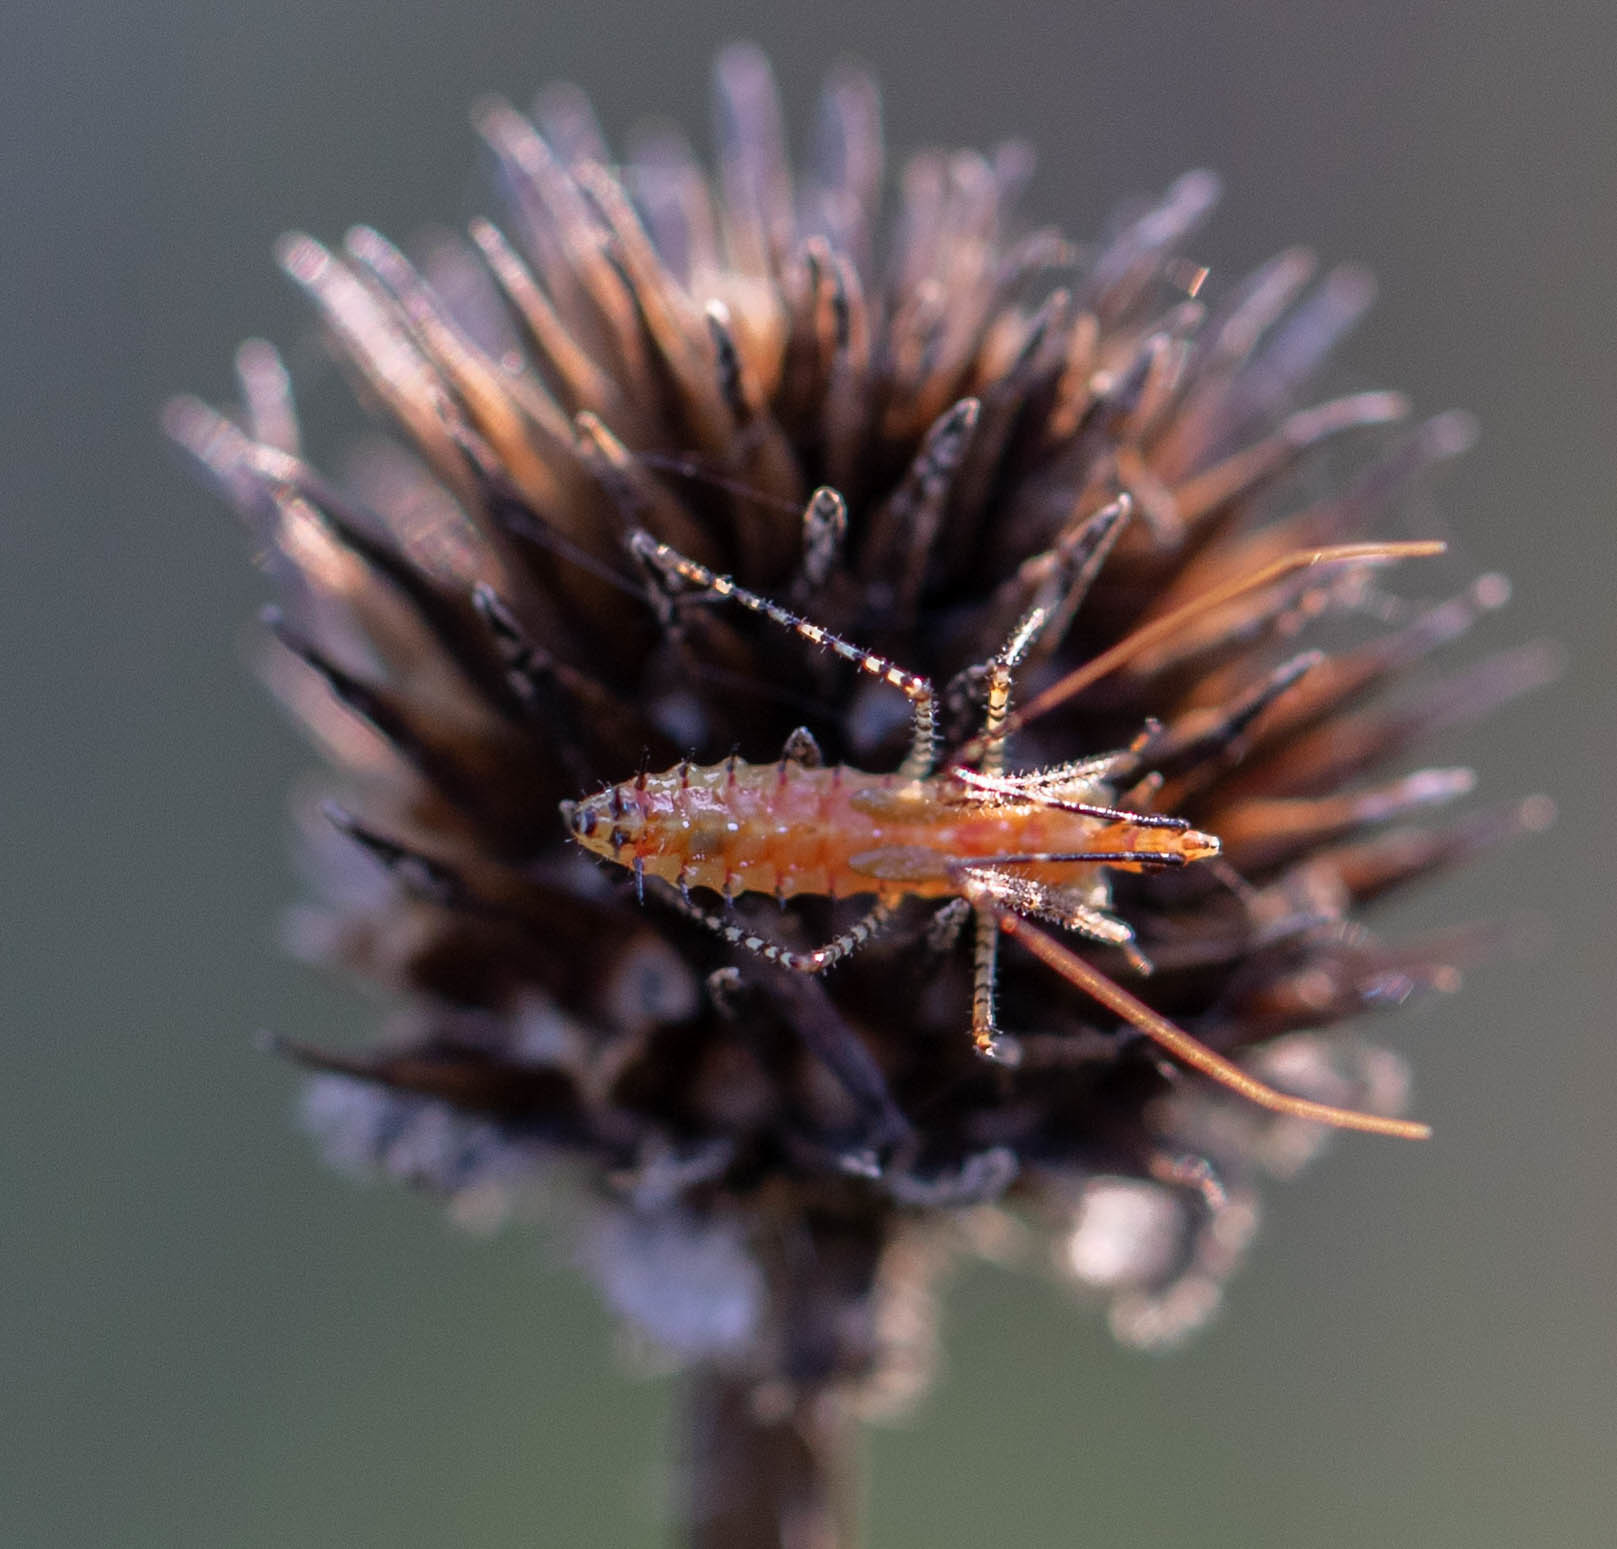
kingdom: Animalia
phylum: Arthropoda
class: Insecta
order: Hemiptera
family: Reduviidae
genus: Zelus
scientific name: Zelus renardii
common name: Assassin bug
